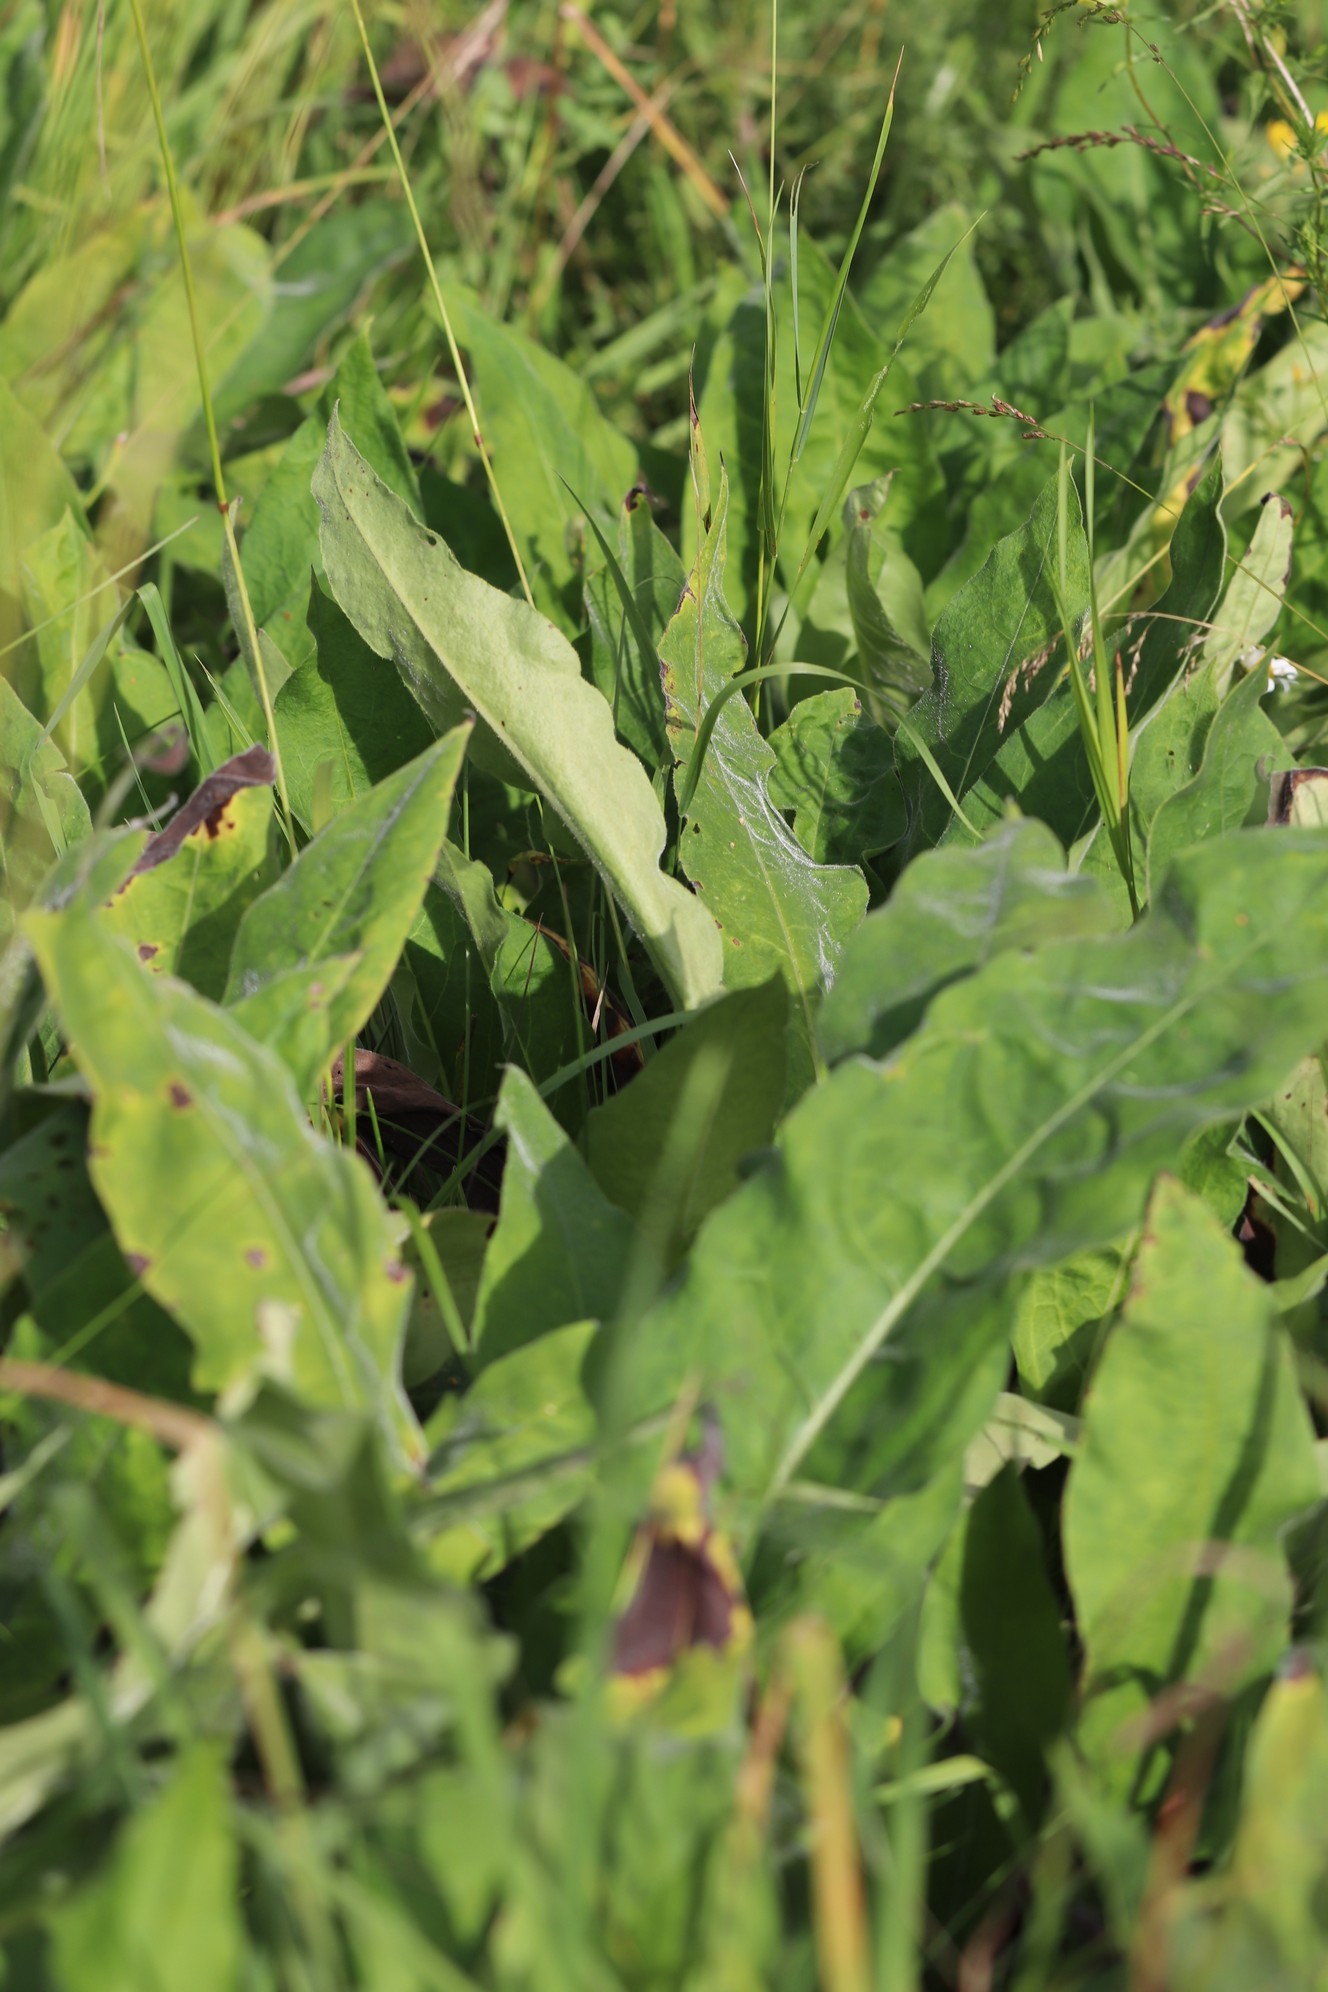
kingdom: Plantae
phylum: Tracheophyta
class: Magnoliopsida
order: Boraginales
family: Boraginaceae
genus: Pulmonaria
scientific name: Pulmonaria mollis
